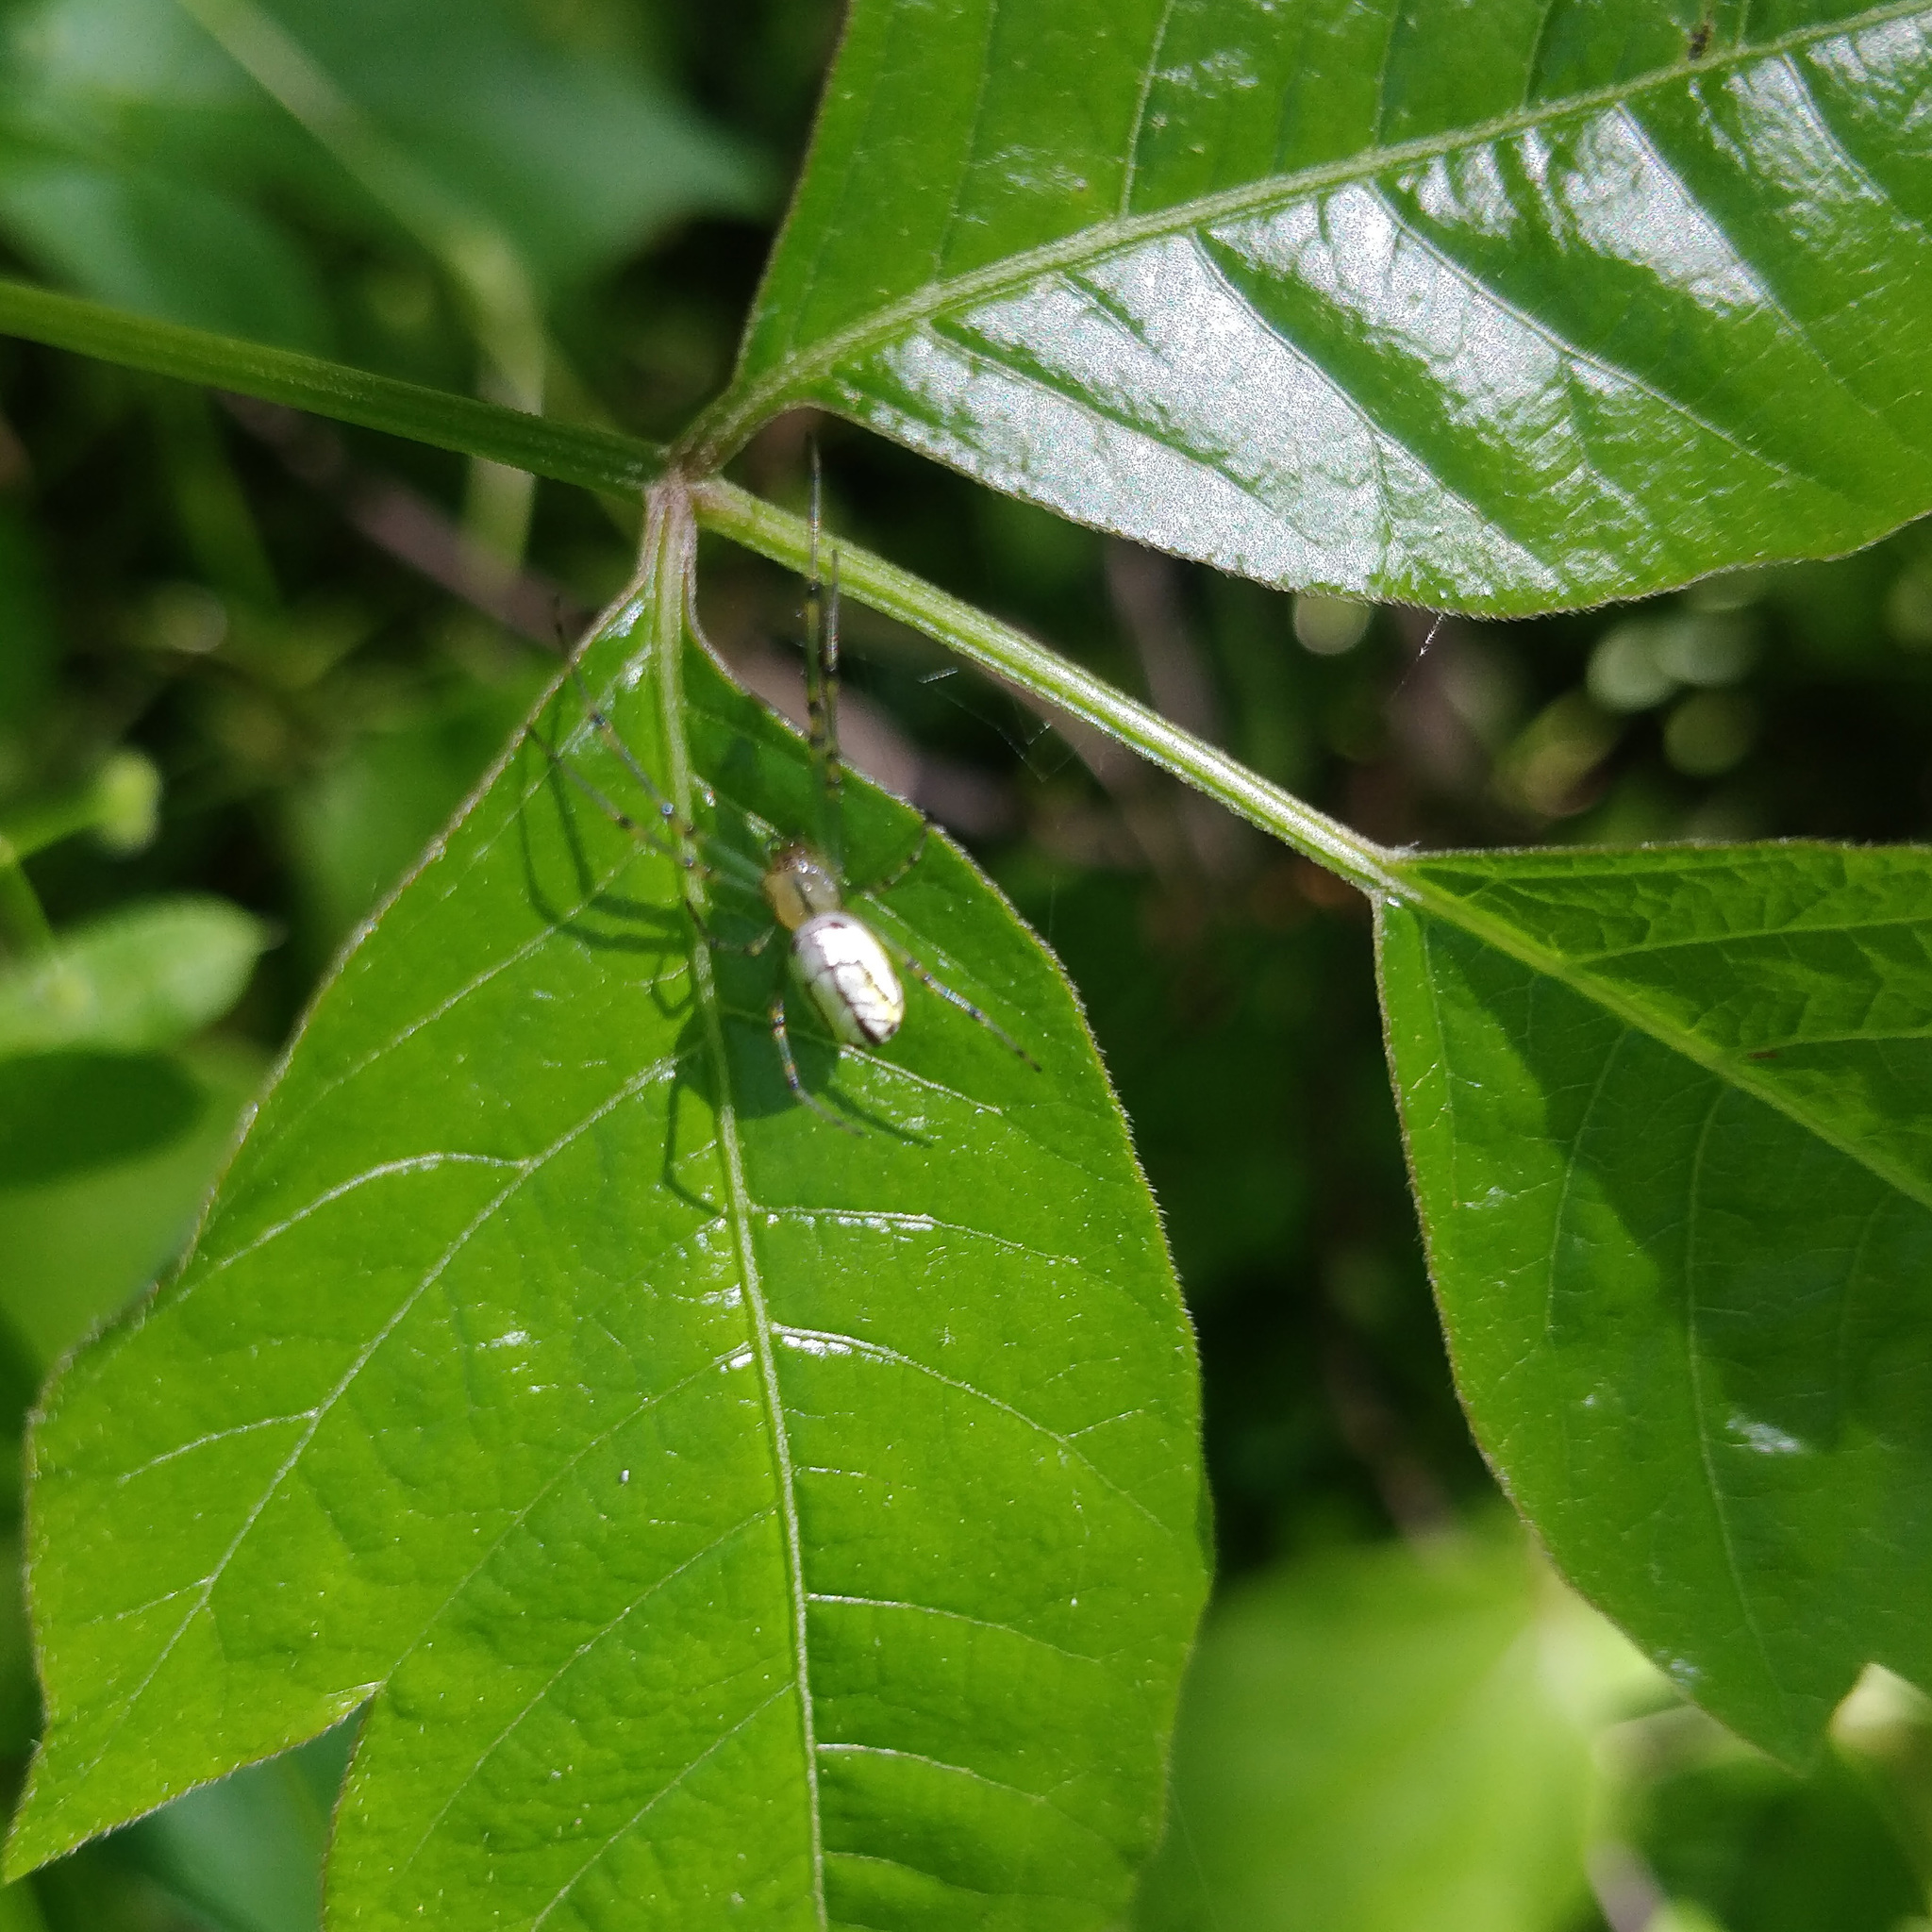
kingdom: Animalia
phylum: Arthropoda
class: Arachnida
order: Araneae
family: Tetragnathidae
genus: Leucauge
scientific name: Leucauge venusta
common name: Longjawed orb weavers
